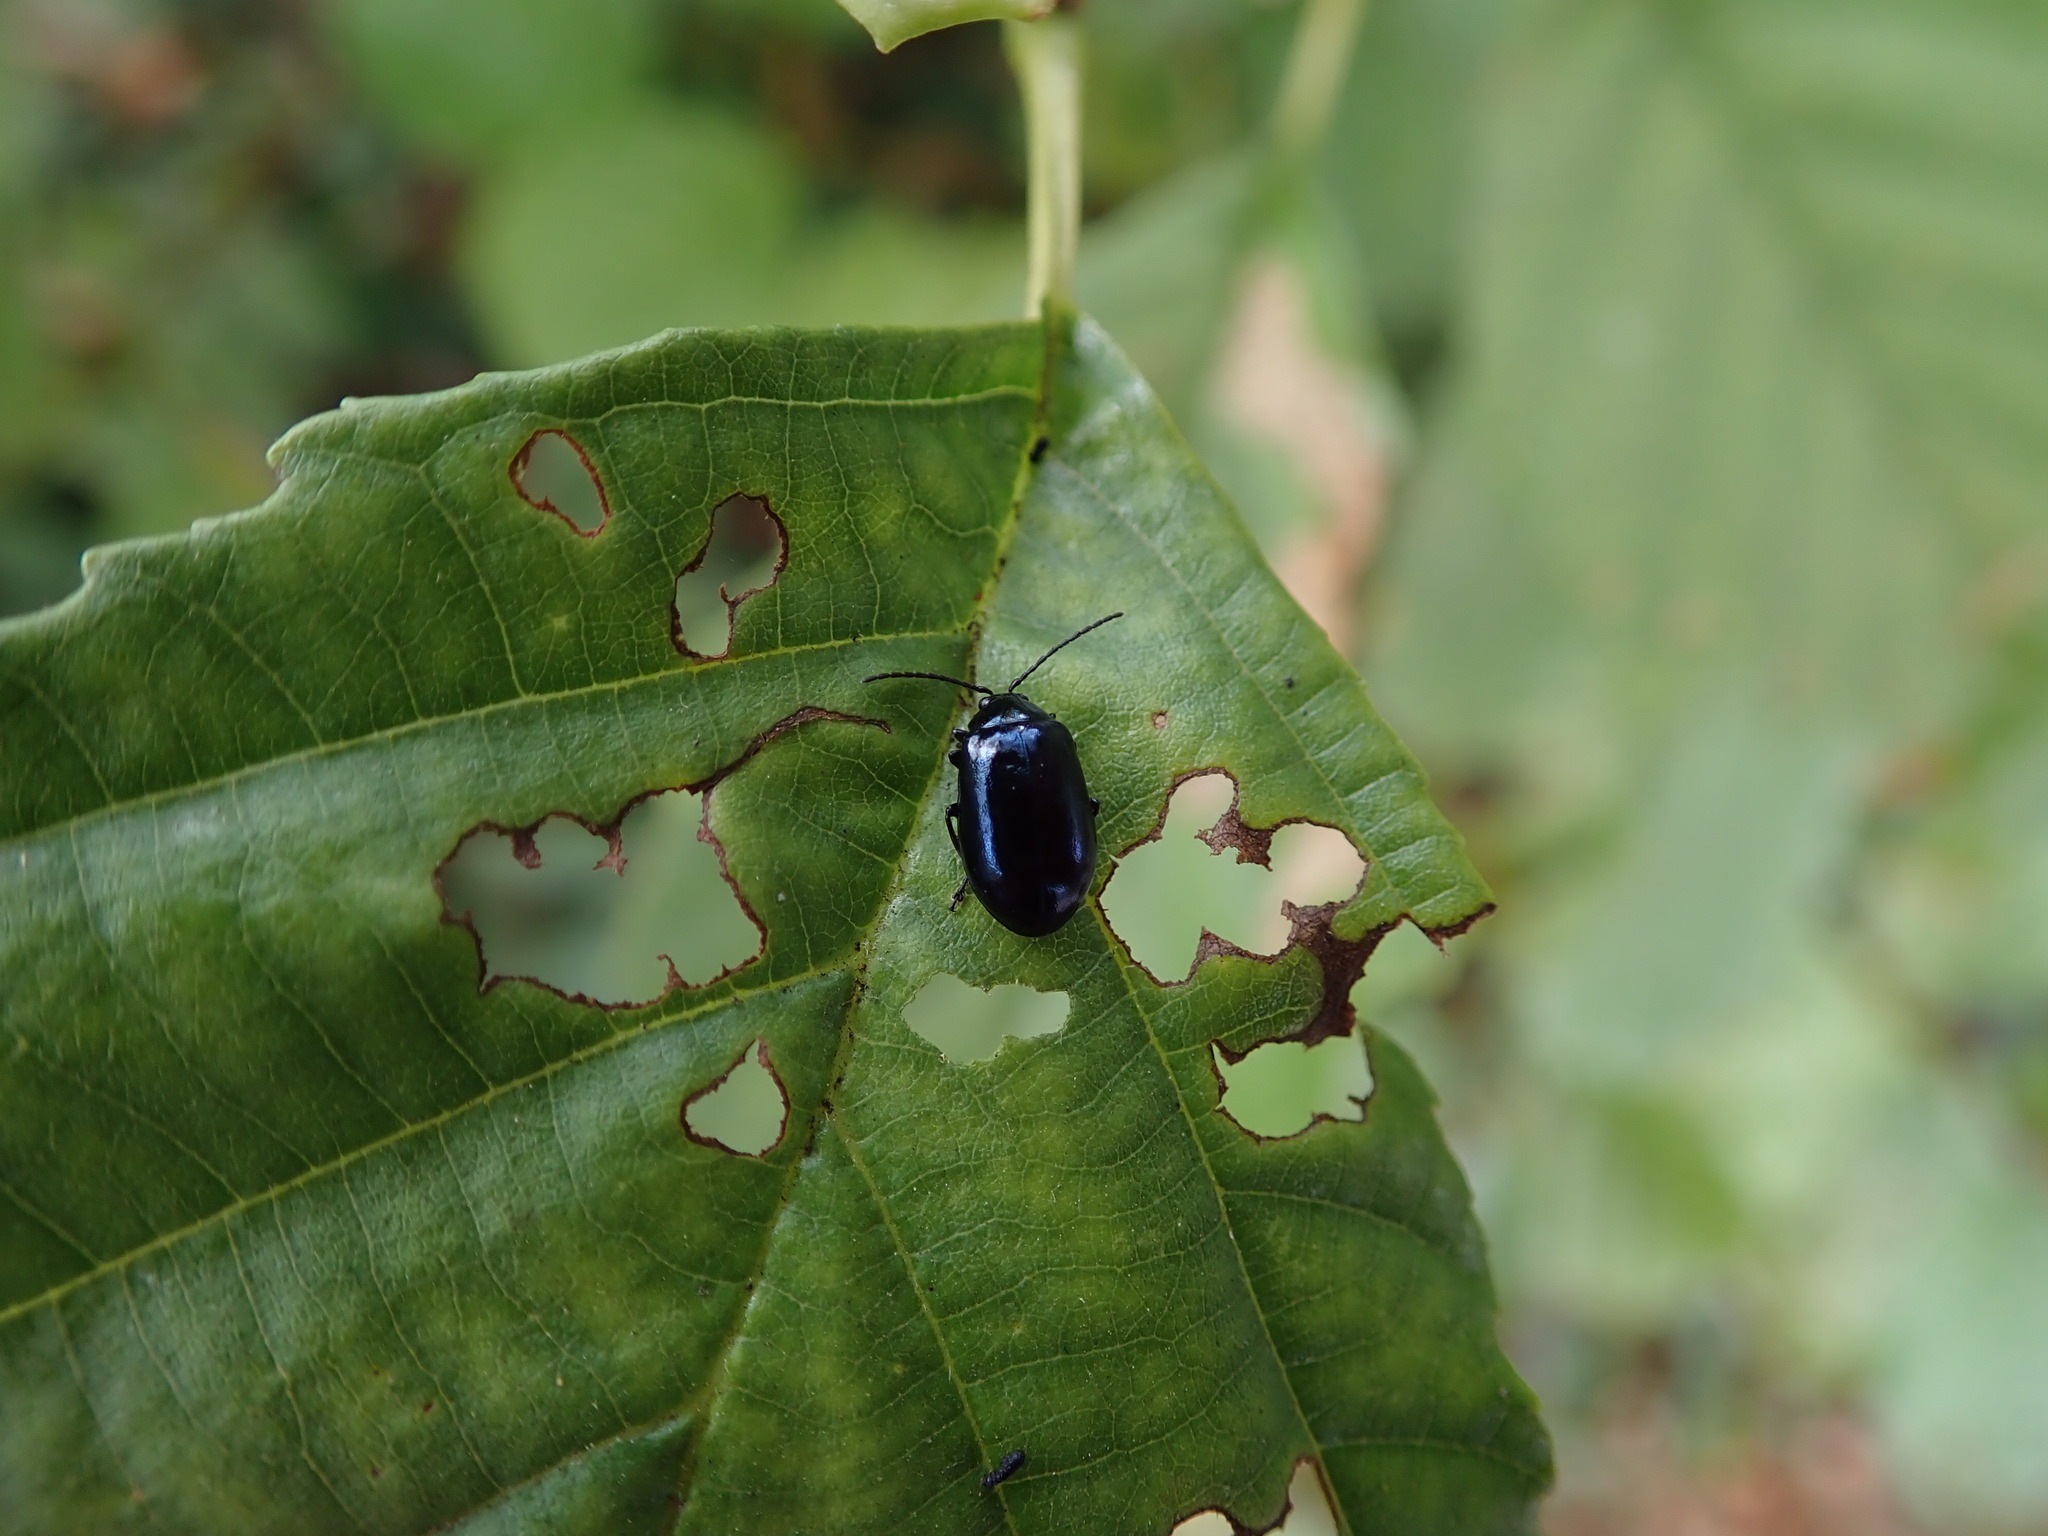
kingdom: Animalia
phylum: Arthropoda
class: Insecta
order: Coleoptera
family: Chrysomelidae
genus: Agelastica
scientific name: Agelastica alni
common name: Alder leaf beetle
